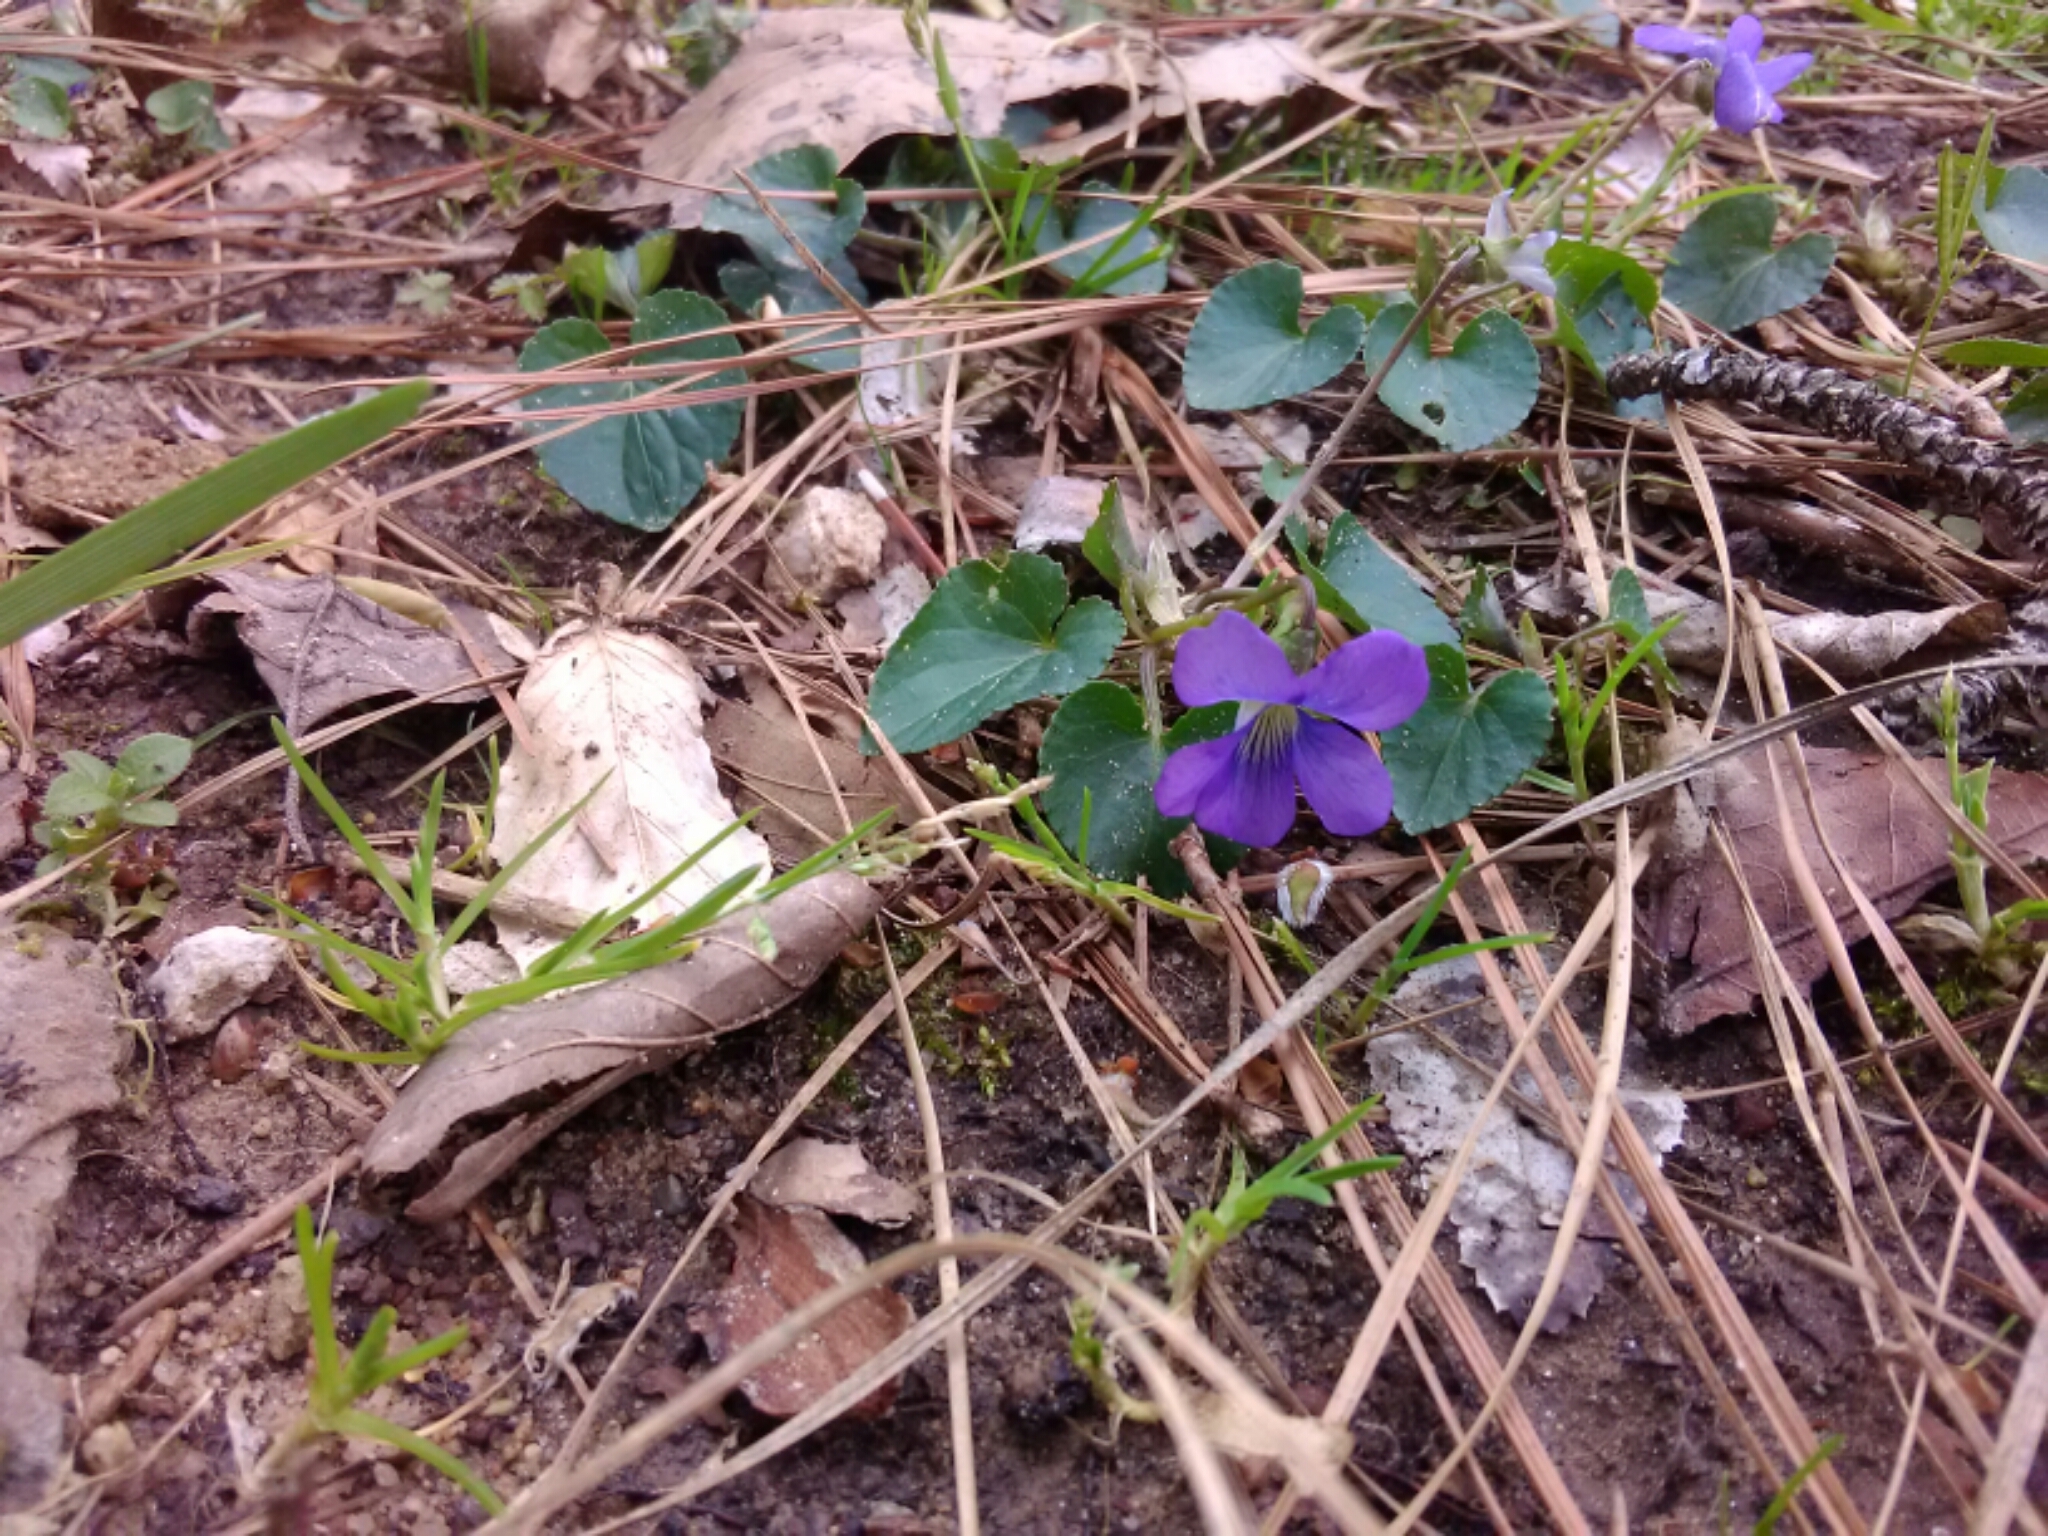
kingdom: Plantae
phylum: Tracheophyta
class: Magnoliopsida
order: Malpighiales
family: Violaceae
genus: Viola
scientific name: Viola sororia
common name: Dooryard violet
